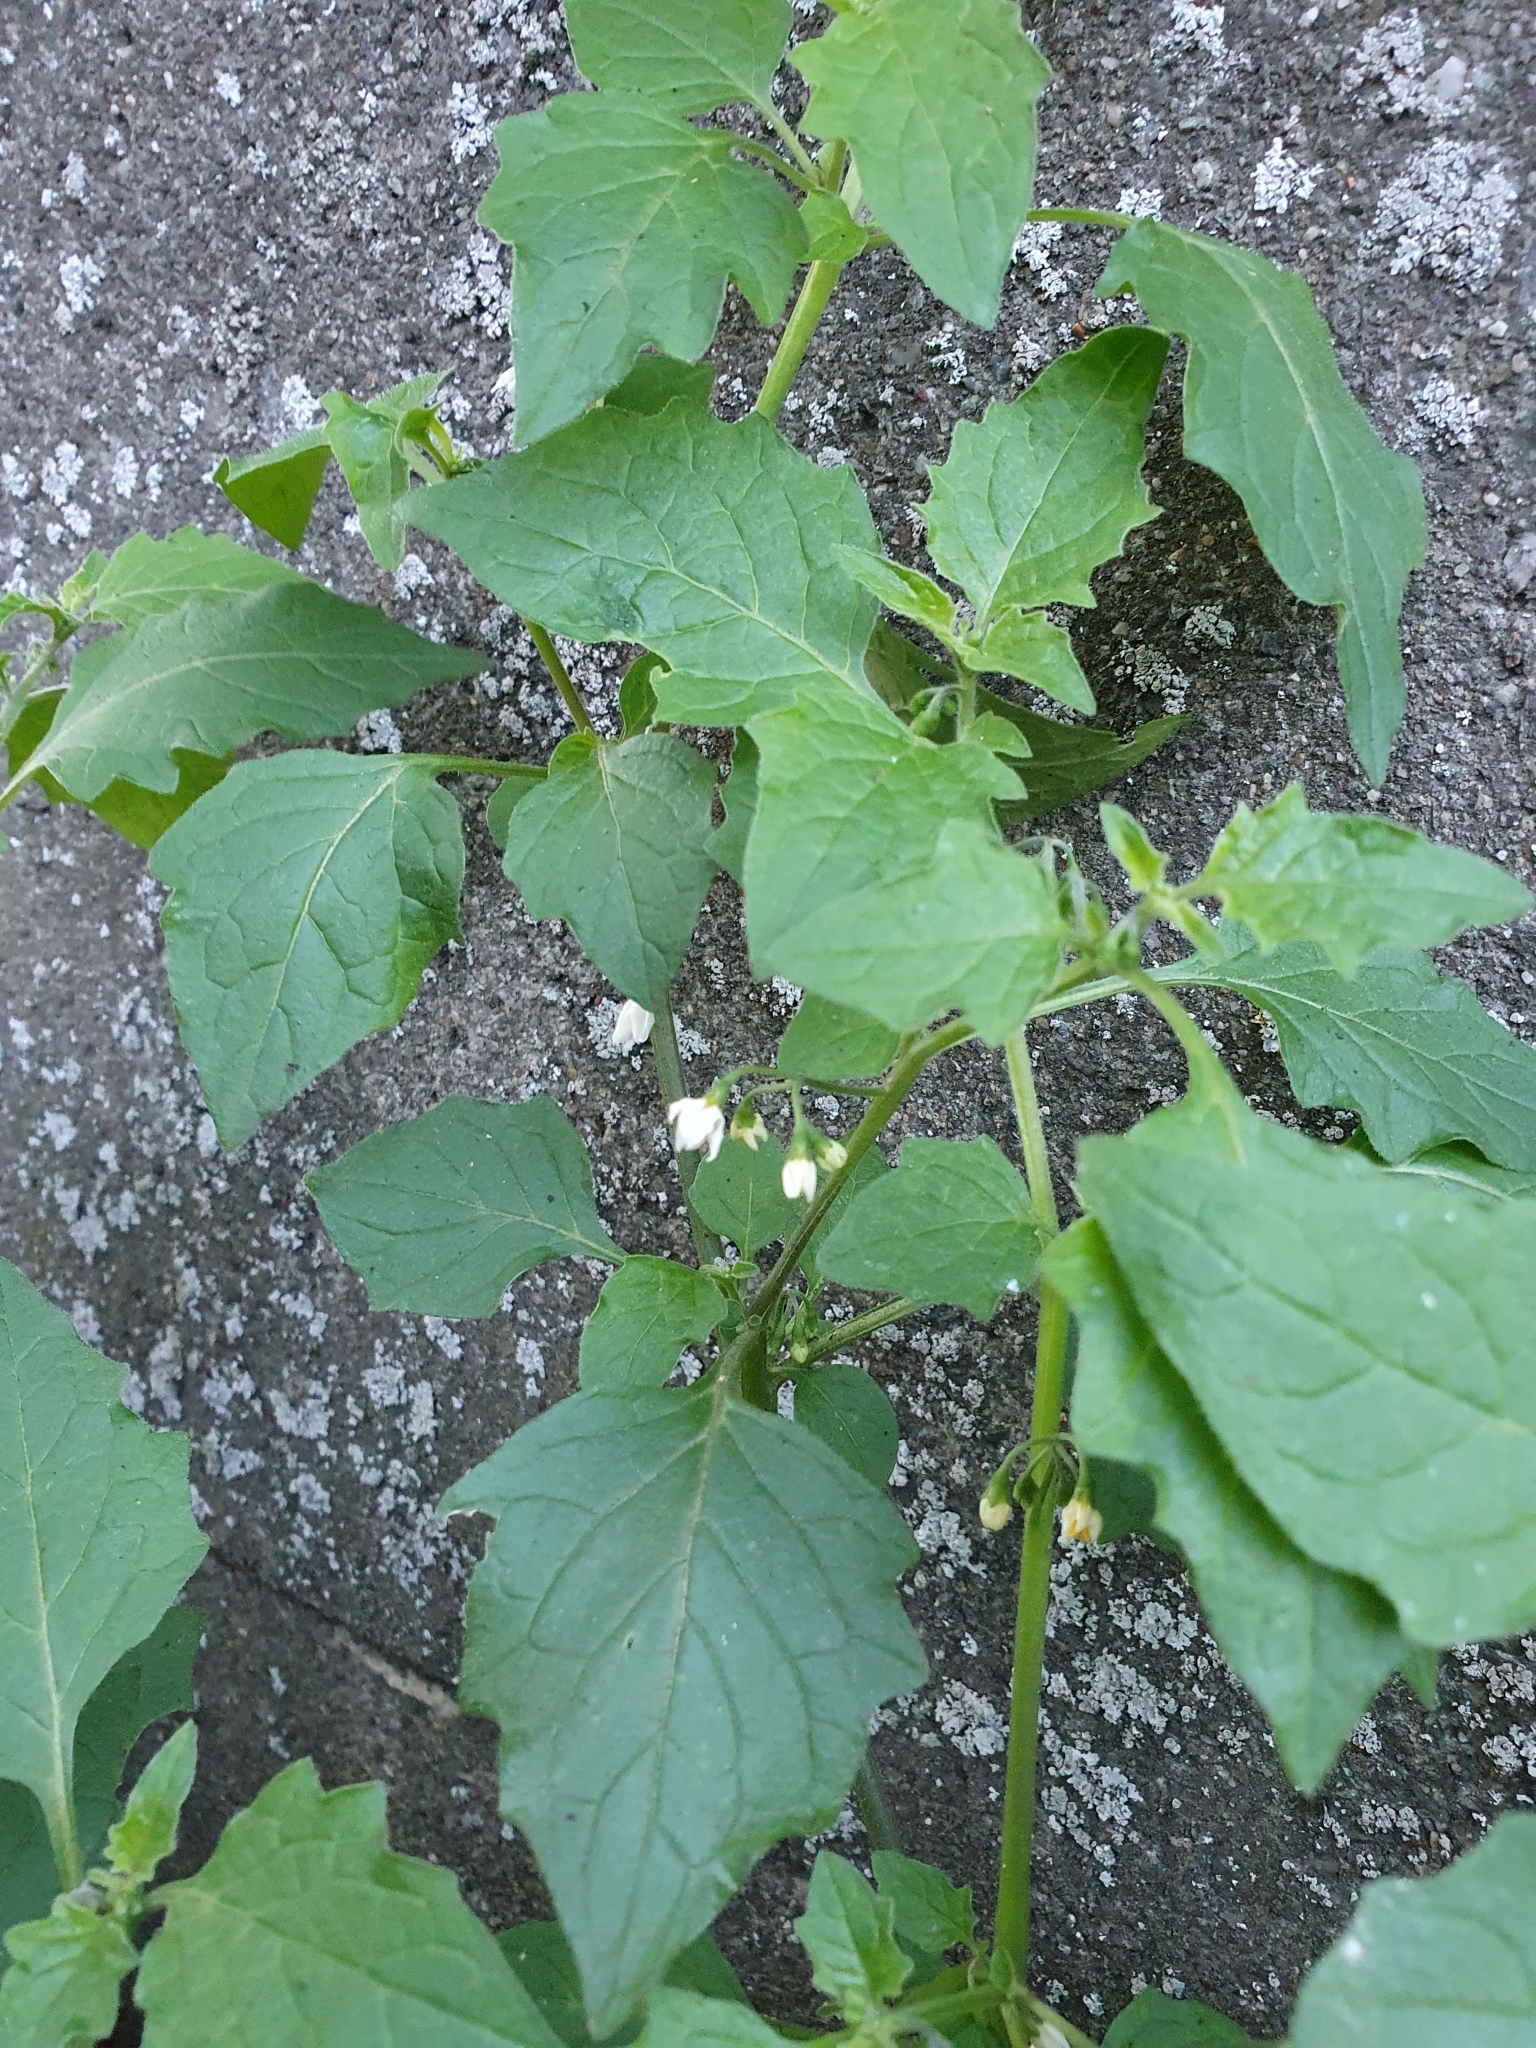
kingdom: Plantae
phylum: Tracheophyta
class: Magnoliopsida
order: Solanales
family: Solanaceae
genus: Solanum
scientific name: Solanum nigrum
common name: Black nightshade
